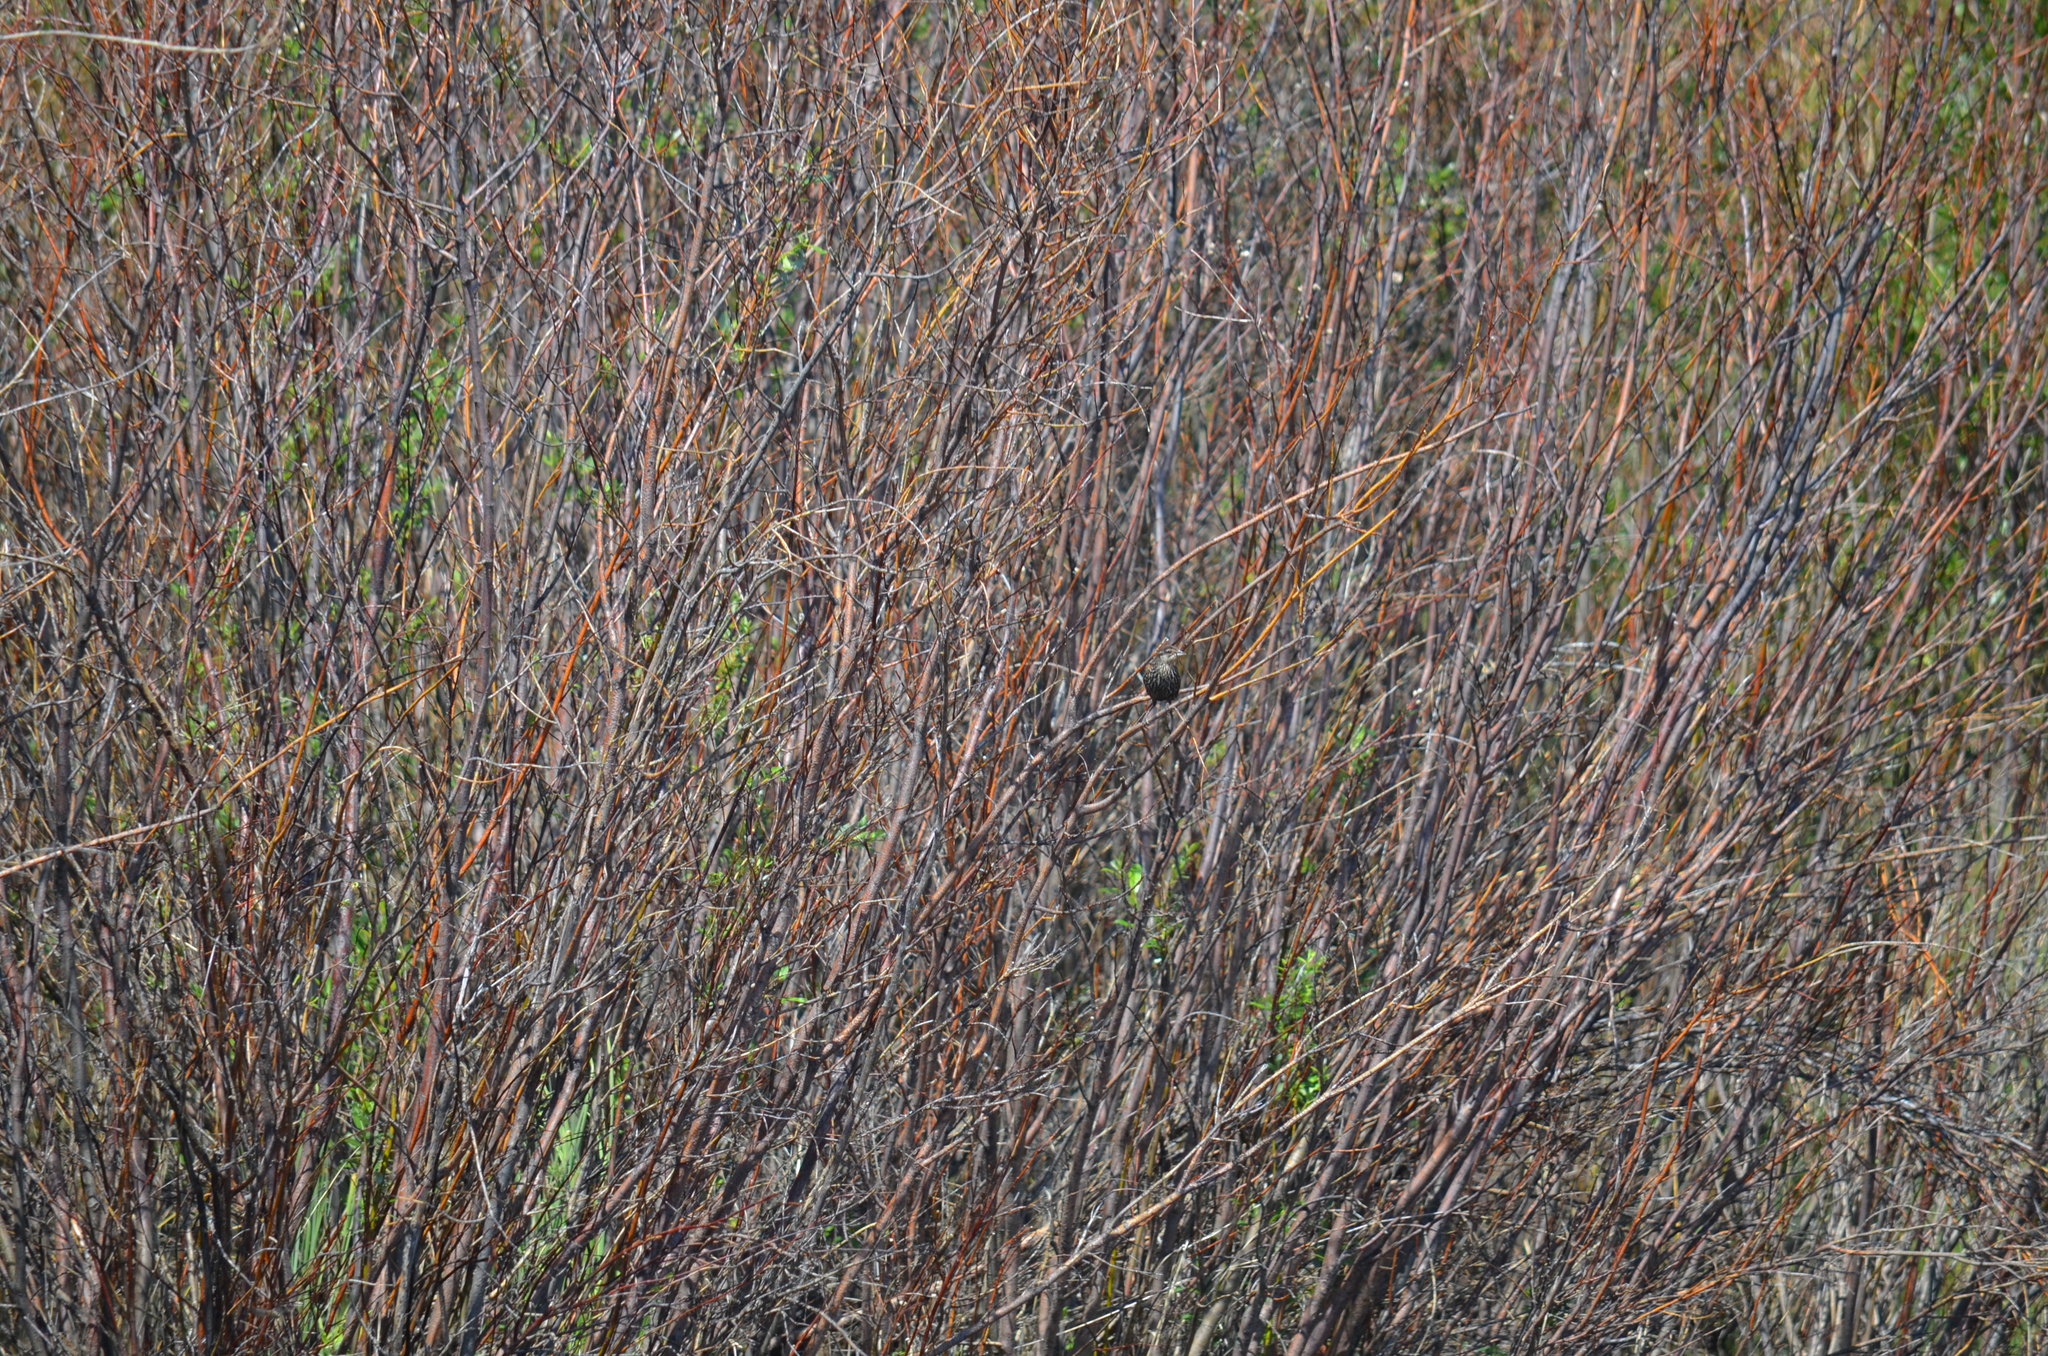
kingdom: Animalia
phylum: Chordata
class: Aves
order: Passeriformes
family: Icteridae
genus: Agelaius
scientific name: Agelaius phoeniceus
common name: Red-winged blackbird
